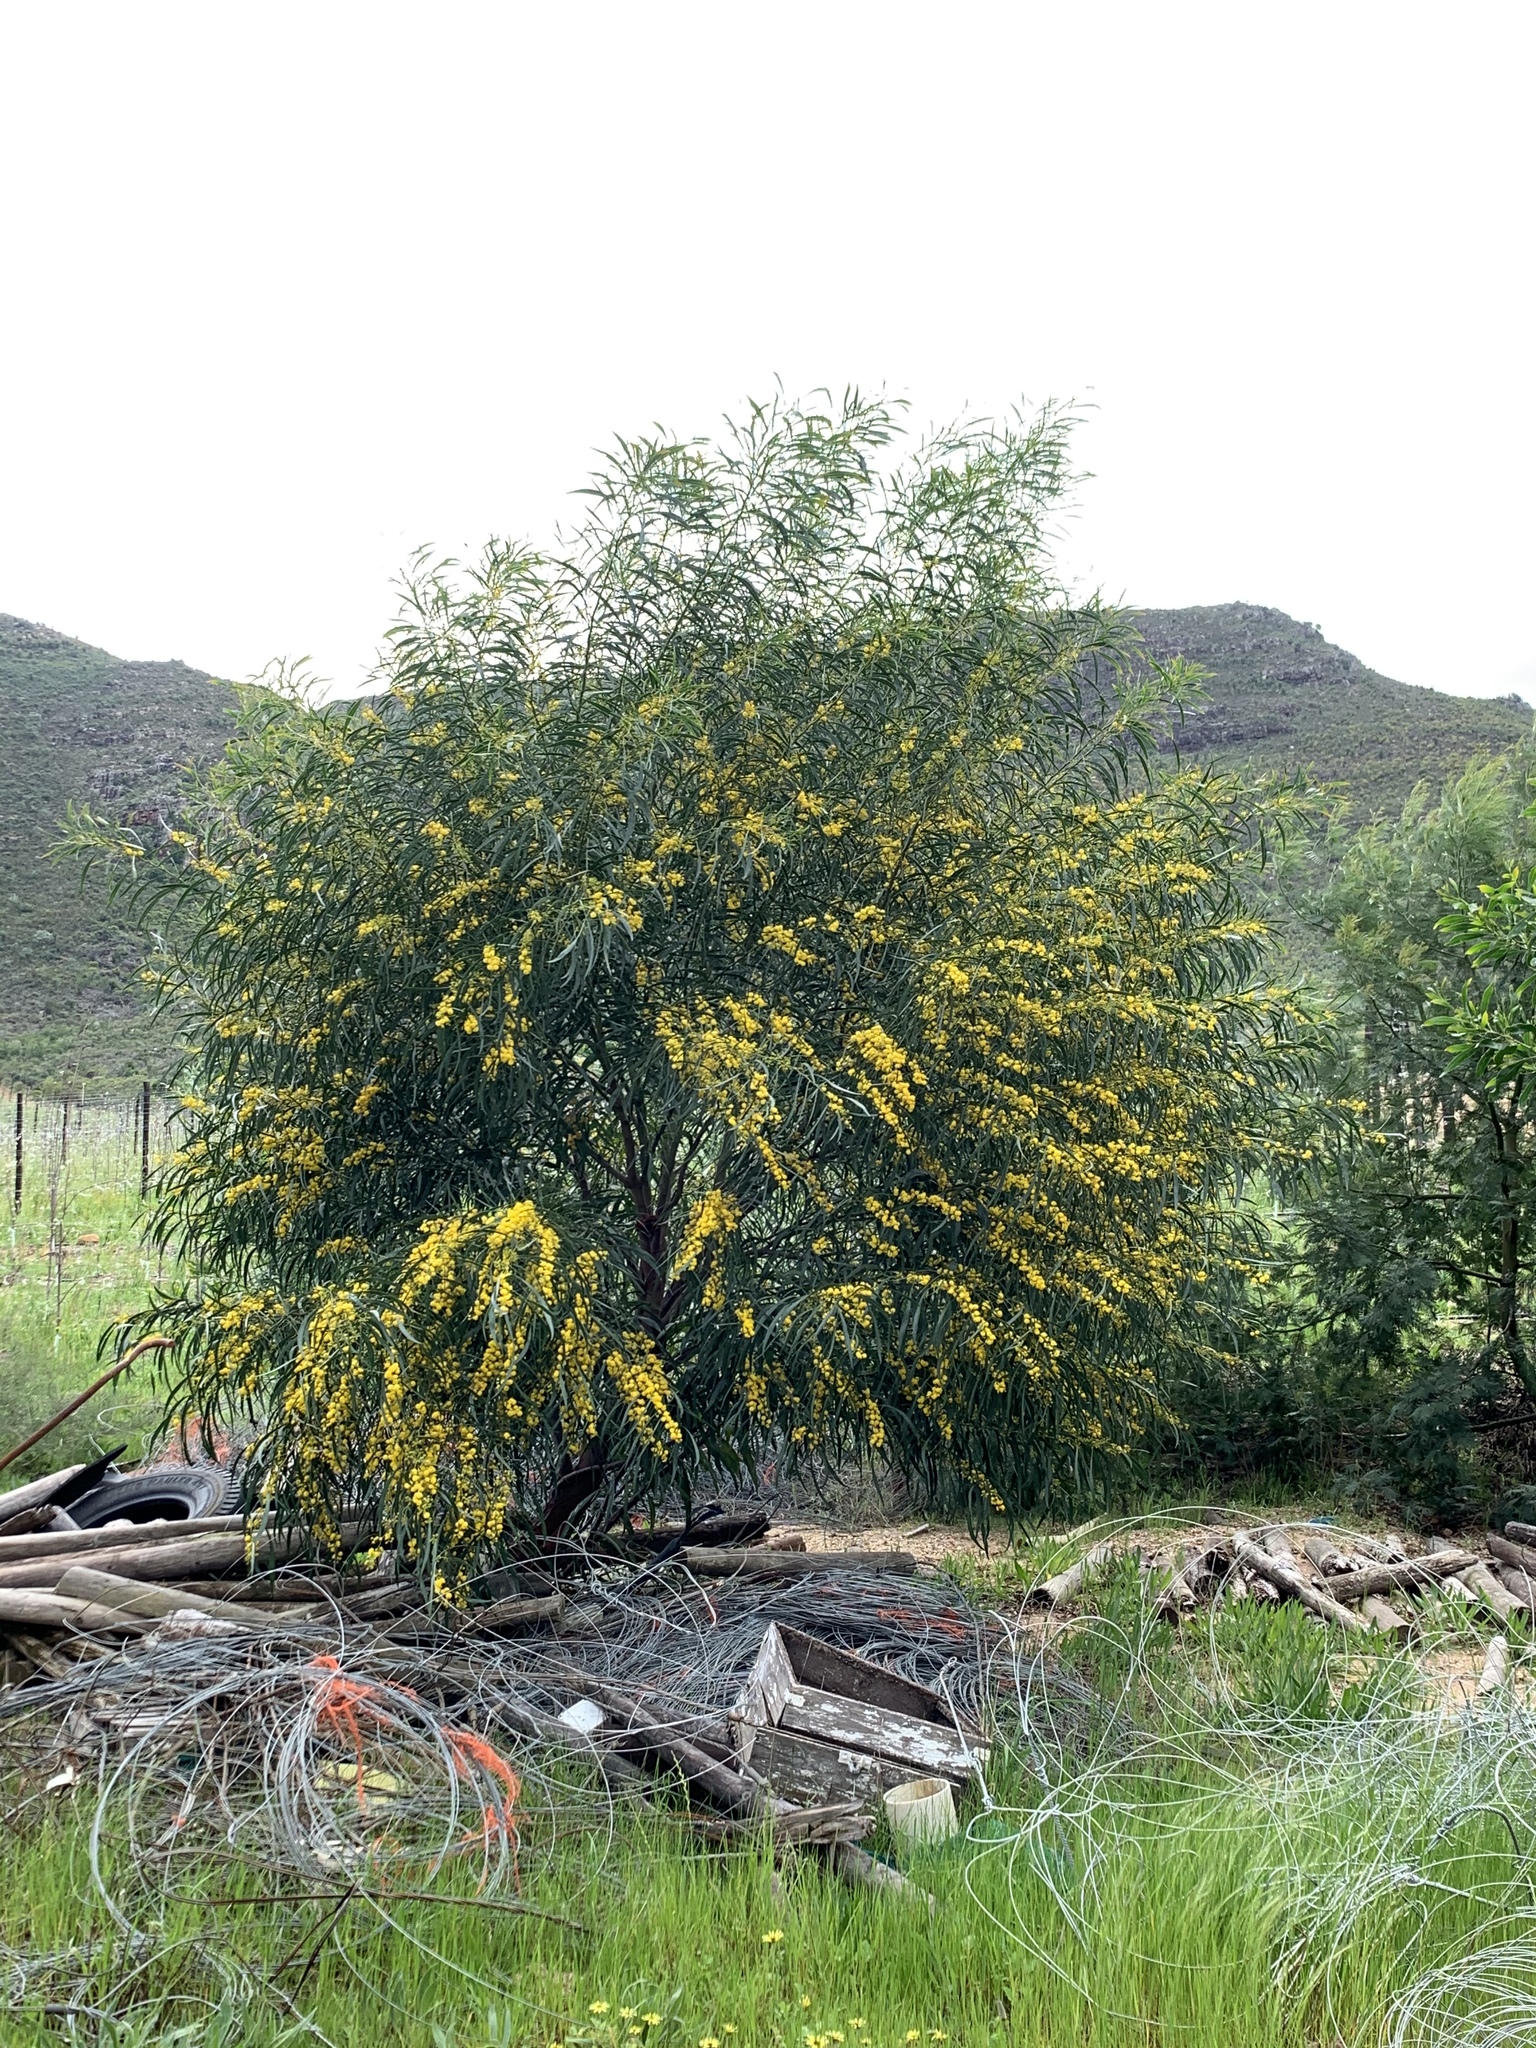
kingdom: Plantae
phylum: Tracheophyta
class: Magnoliopsida
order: Fabales
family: Fabaceae
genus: Acacia
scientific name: Acacia saligna
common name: Orange wattle
